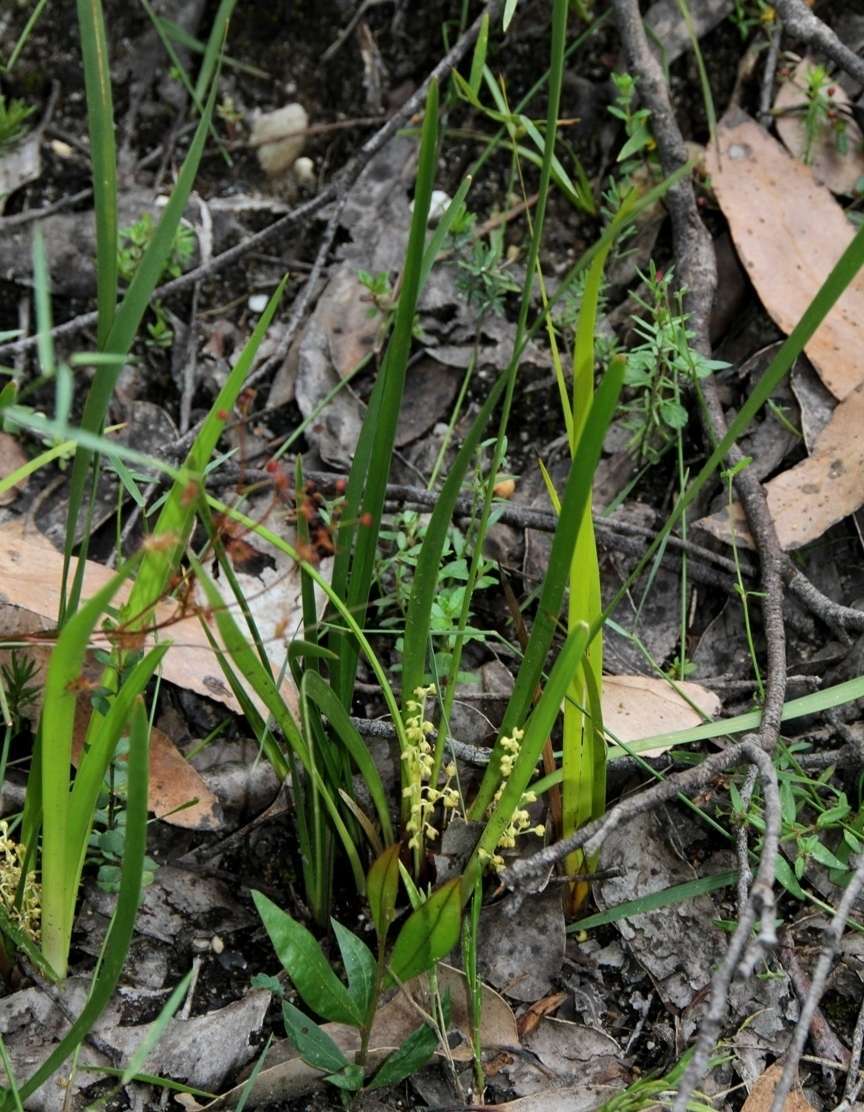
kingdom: Plantae
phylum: Tracheophyta
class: Liliopsida
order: Asparagales
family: Asparagaceae
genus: Lomandra
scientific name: Lomandra filiformis
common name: Wattle mat-rush
